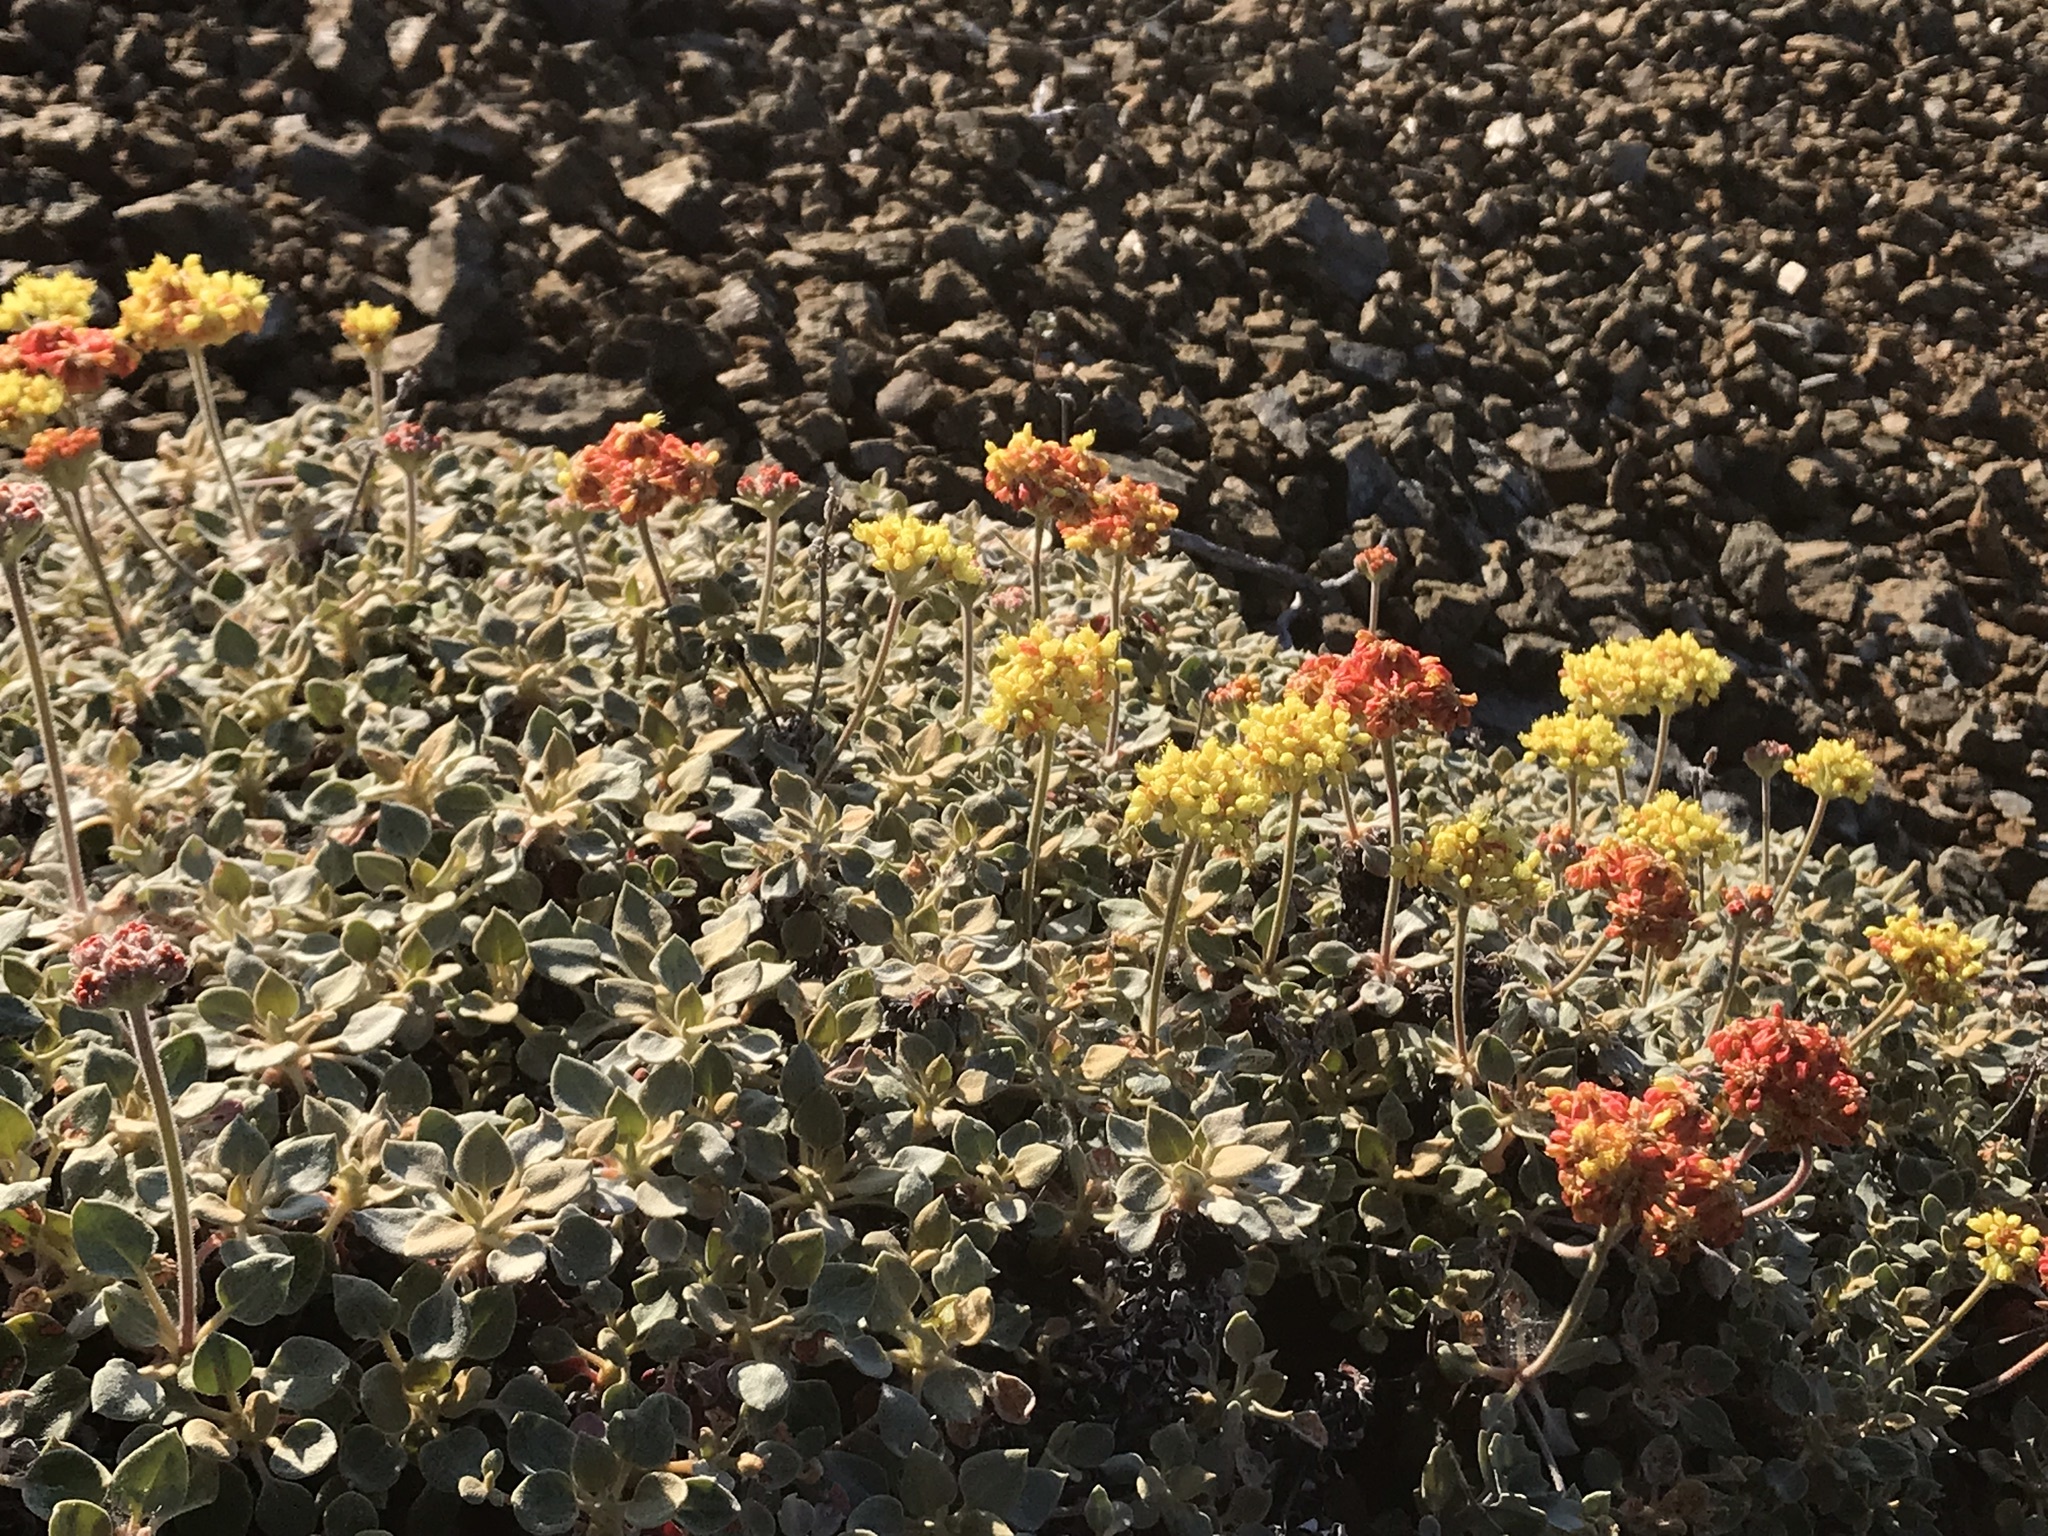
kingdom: Plantae
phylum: Tracheophyta
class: Magnoliopsida
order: Caryophyllales
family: Polygonaceae
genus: Eriogonum
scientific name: Eriogonum cedrorum
